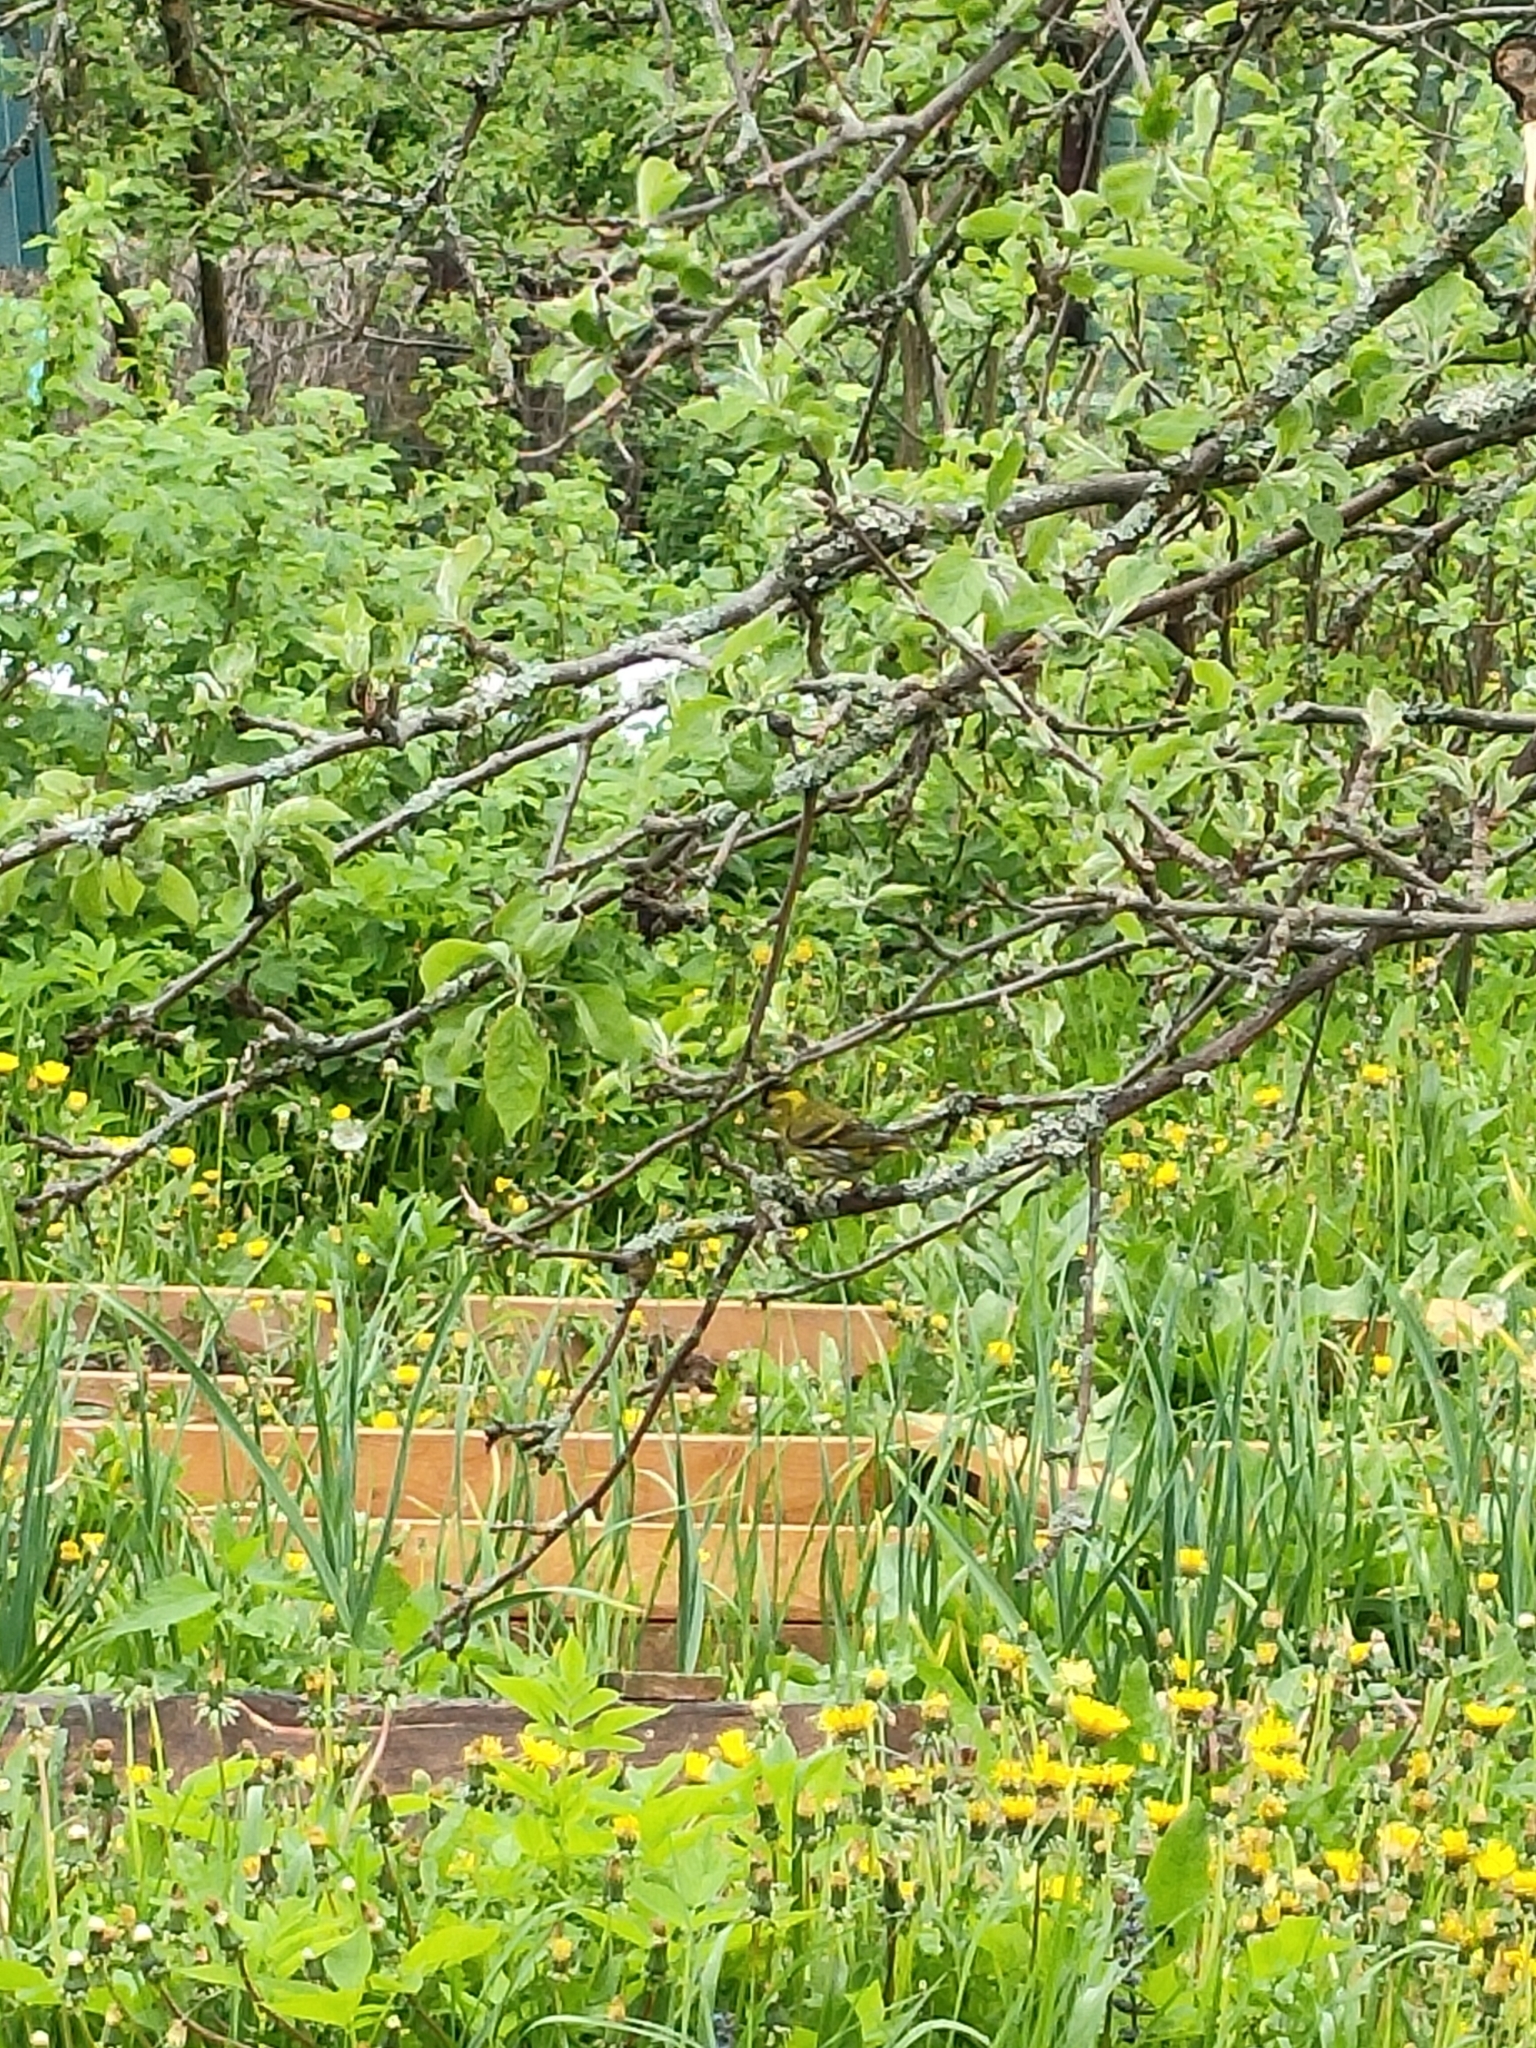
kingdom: Animalia
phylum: Chordata
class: Aves
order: Passeriformes
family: Fringillidae
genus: Spinus
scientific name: Spinus spinus
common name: Eurasian siskin
